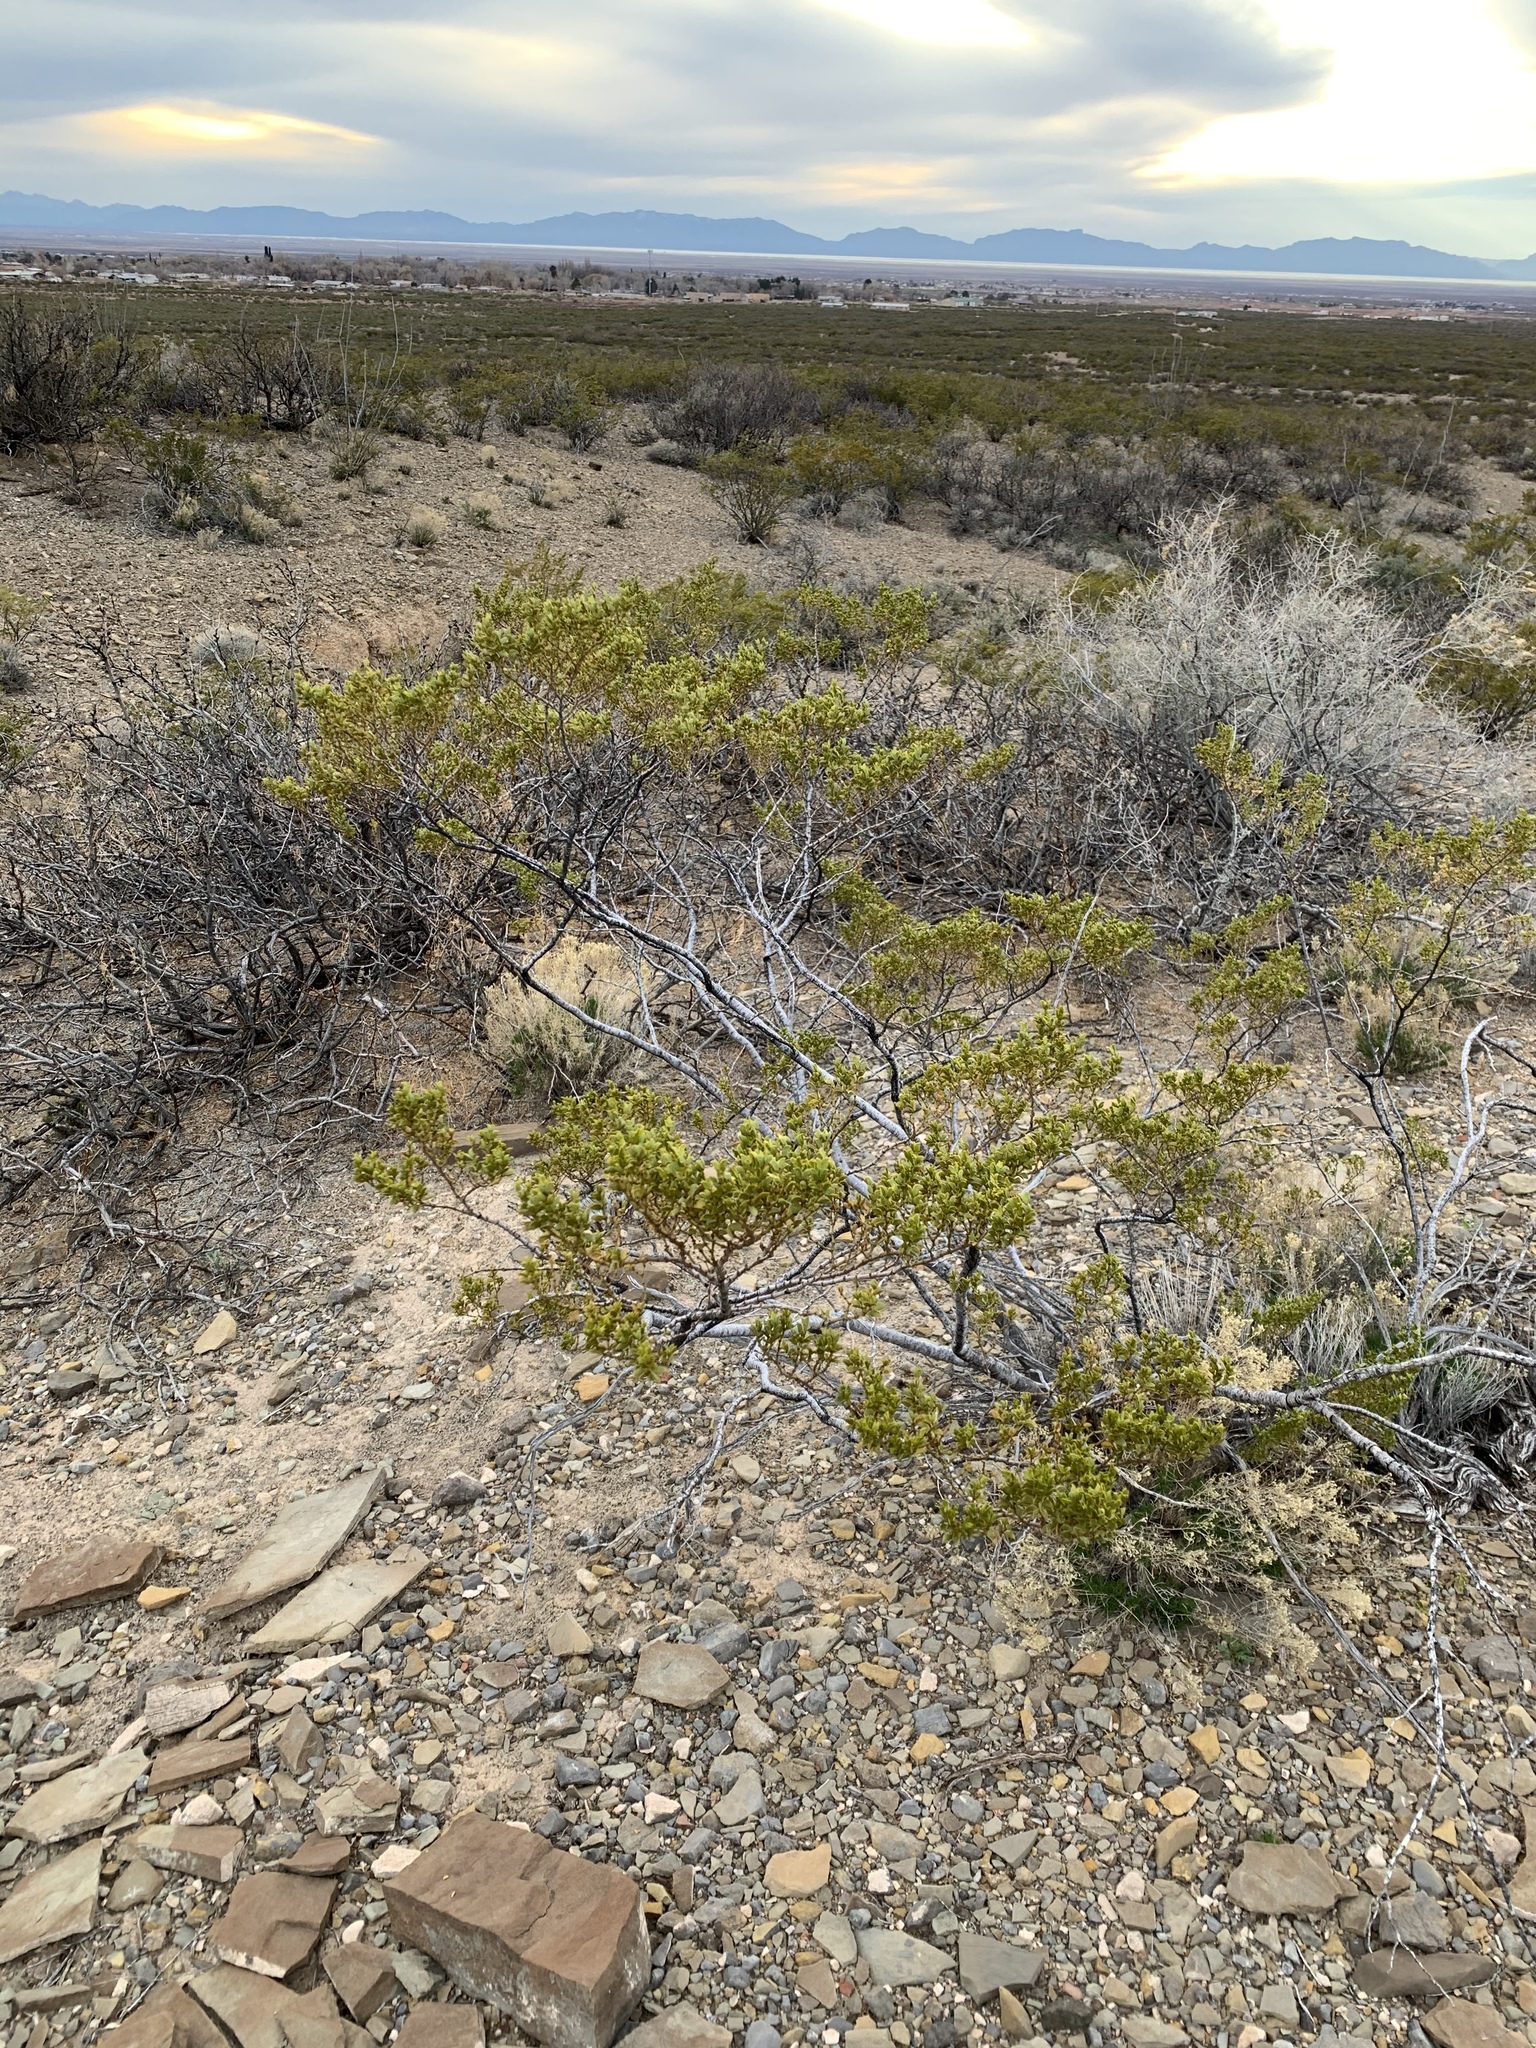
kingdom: Plantae
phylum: Tracheophyta
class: Magnoliopsida
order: Zygophyllales
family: Zygophyllaceae
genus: Larrea
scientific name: Larrea tridentata
